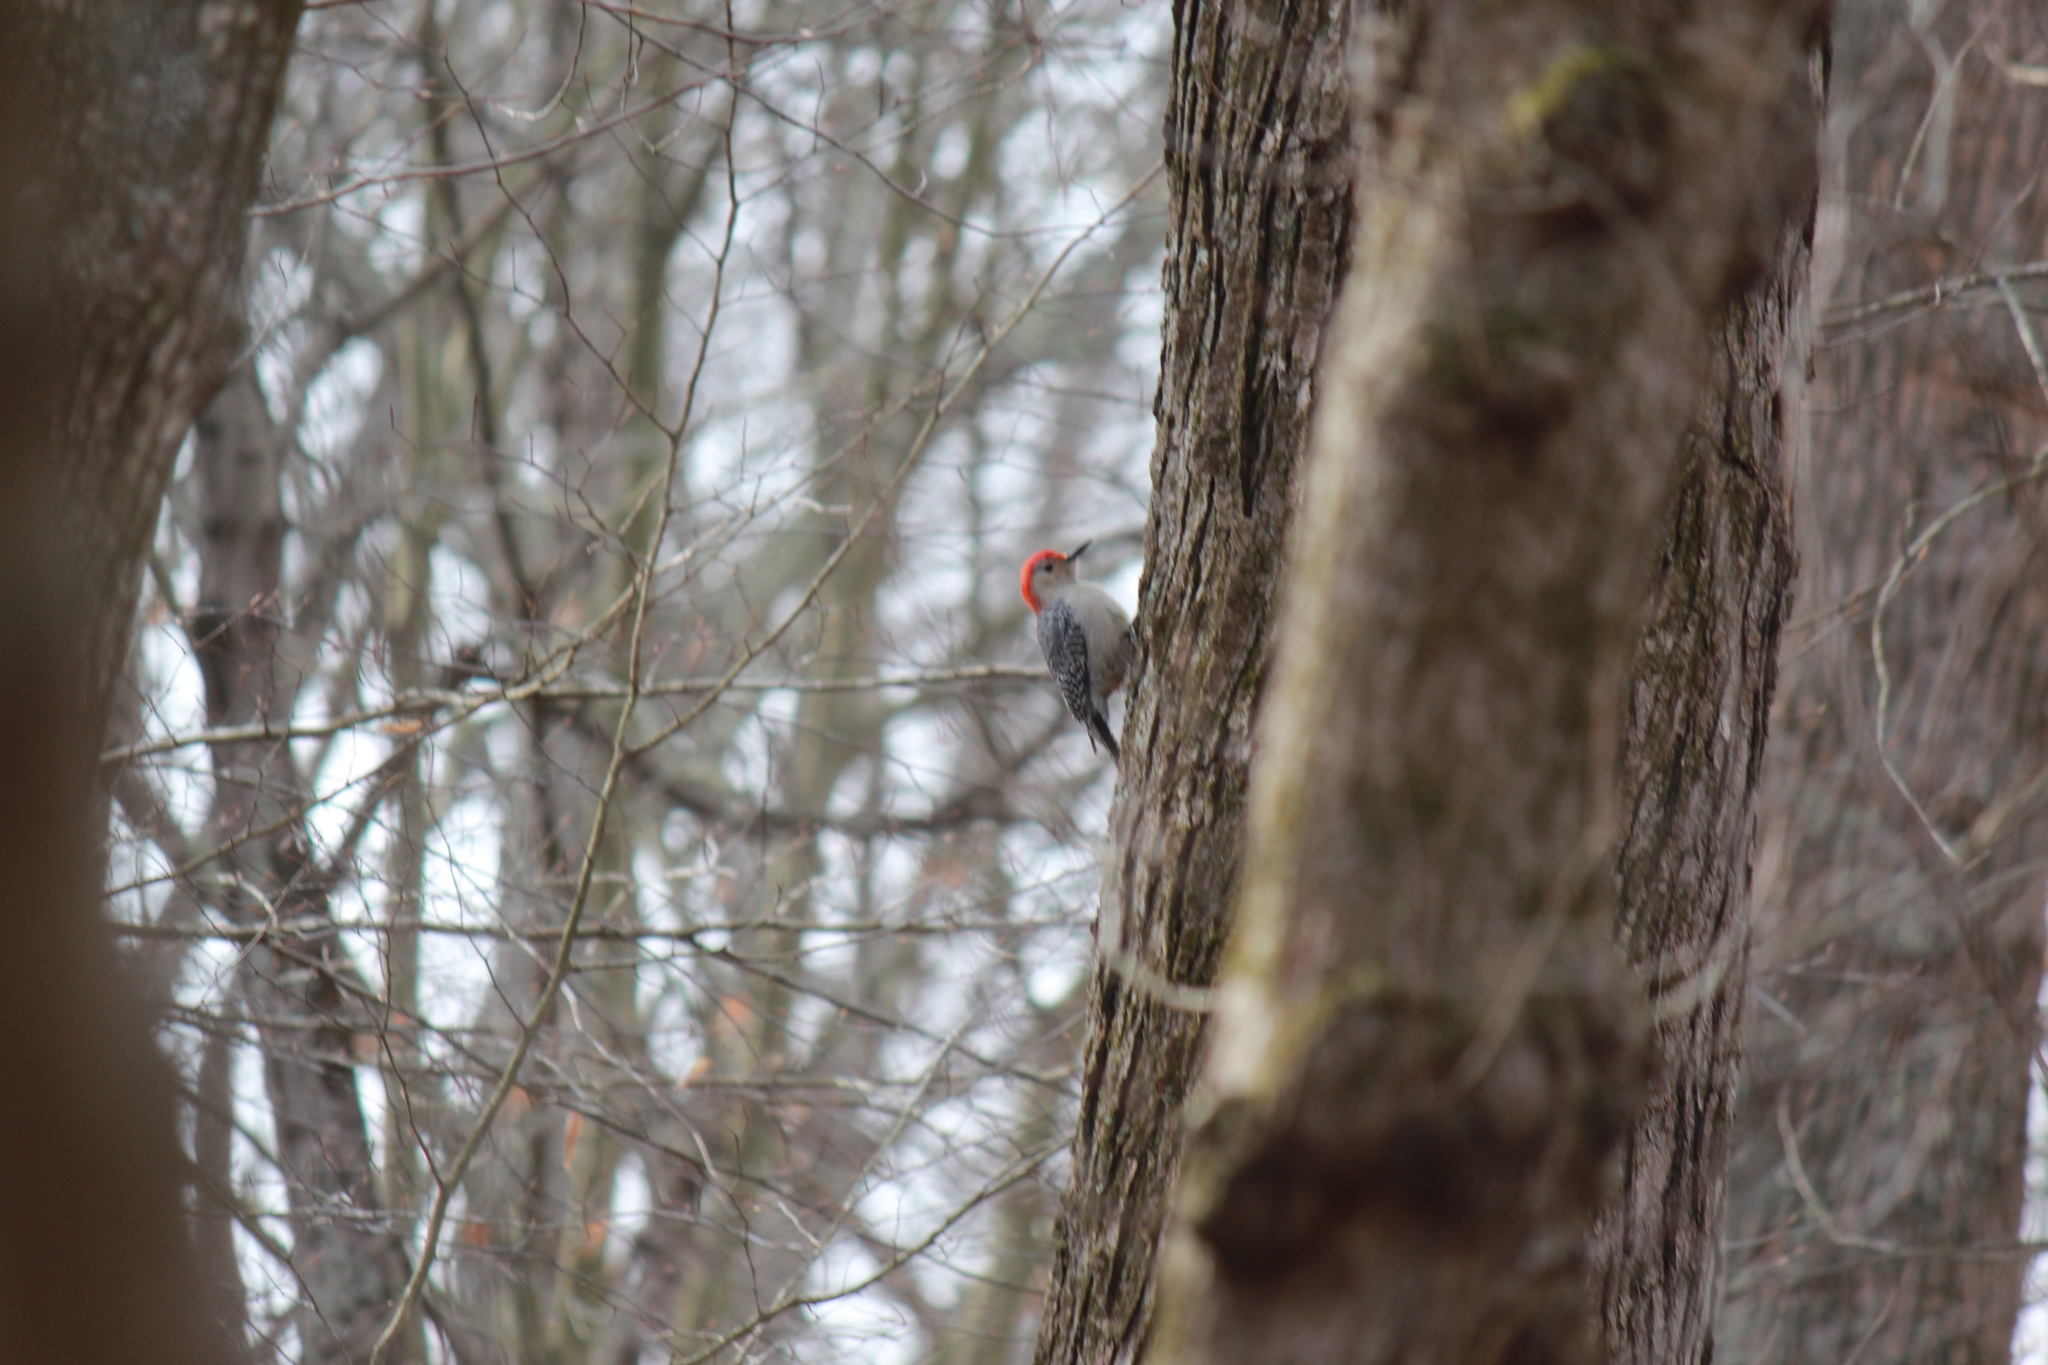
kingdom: Animalia
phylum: Chordata
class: Aves
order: Piciformes
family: Picidae
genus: Melanerpes
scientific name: Melanerpes carolinus
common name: Red-bellied woodpecker
